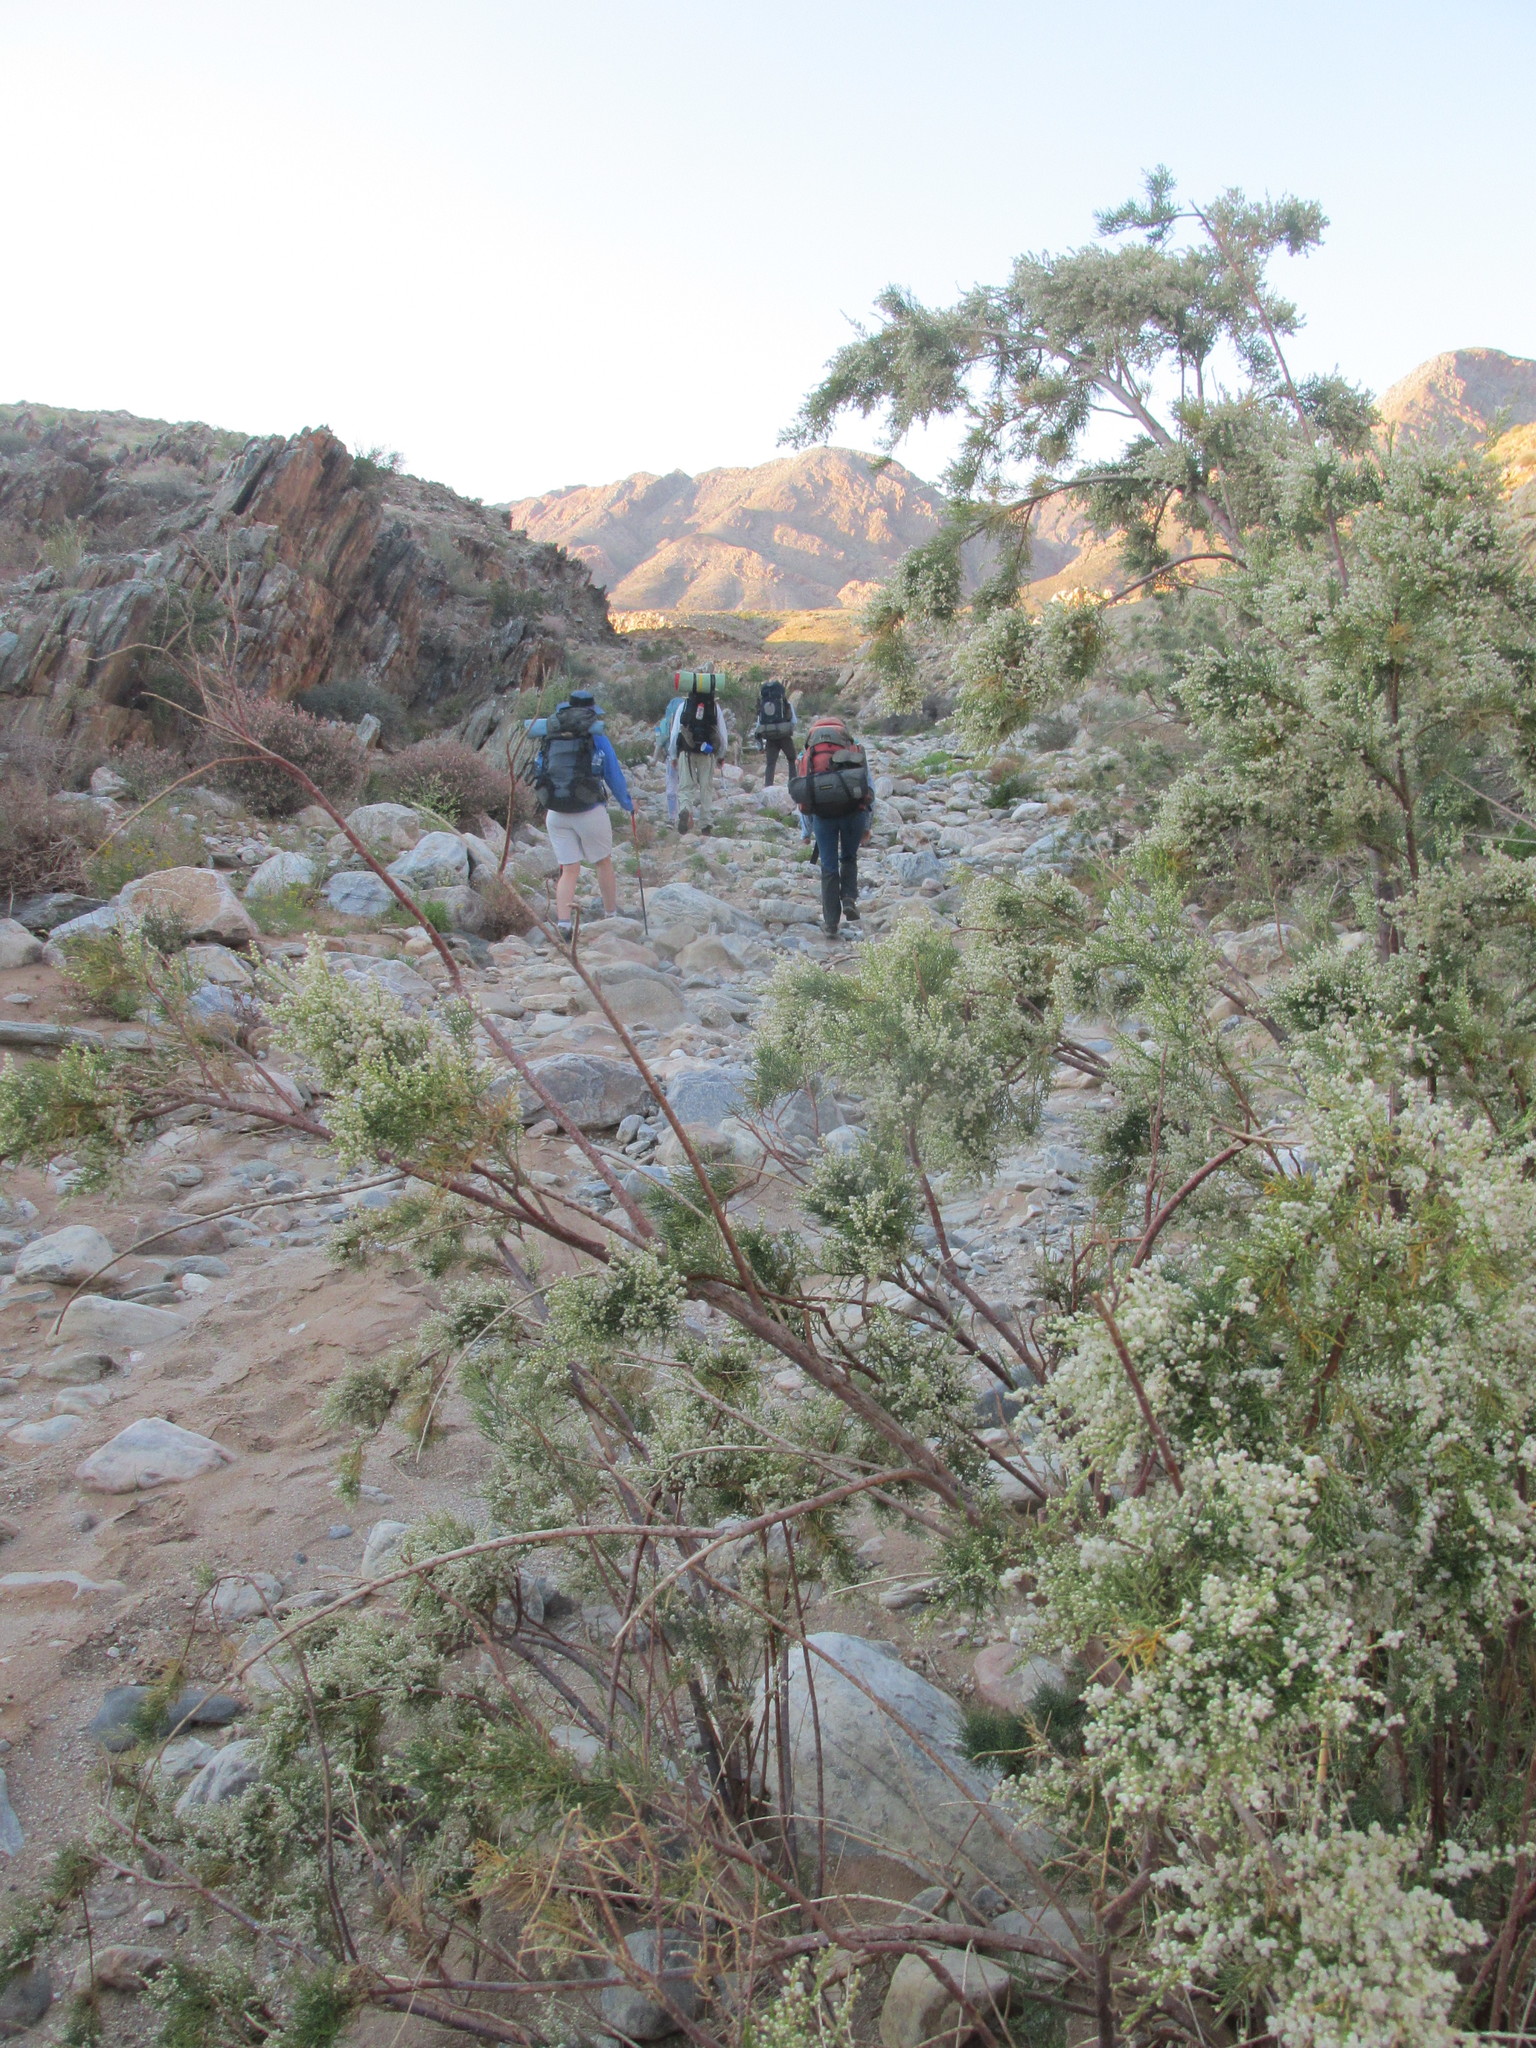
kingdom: Plantae
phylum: Tracheophyta
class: Magnoliopsida
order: Caryophyllales
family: Tamaricaceae
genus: Tamarix
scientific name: Tamarix usneoides
